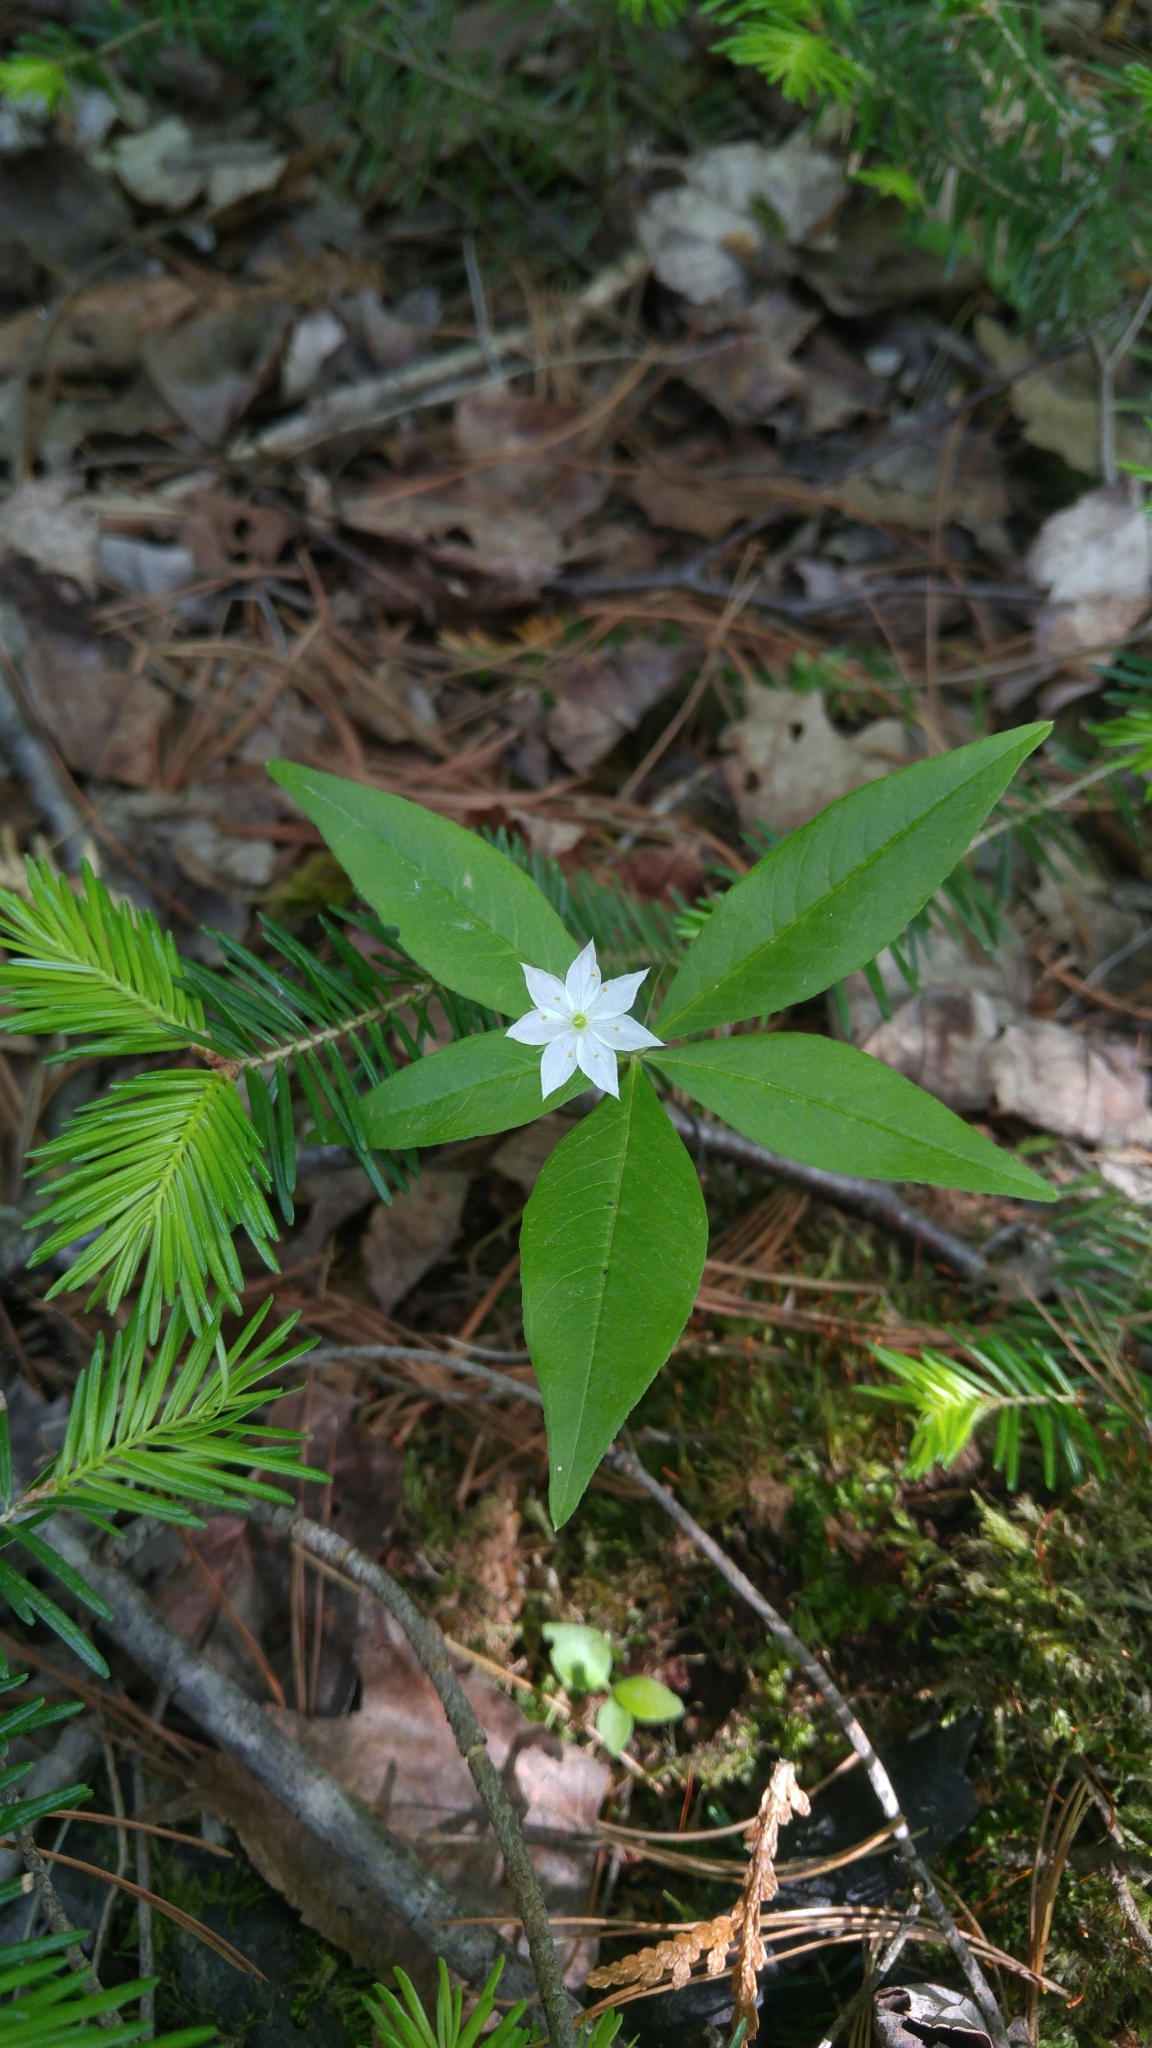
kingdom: Plantae
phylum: Tracheophyta
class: Magnoliopsida
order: Ericales
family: Primulaceae
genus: Lysimachia
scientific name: Lysimachia borealis
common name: American starflower
